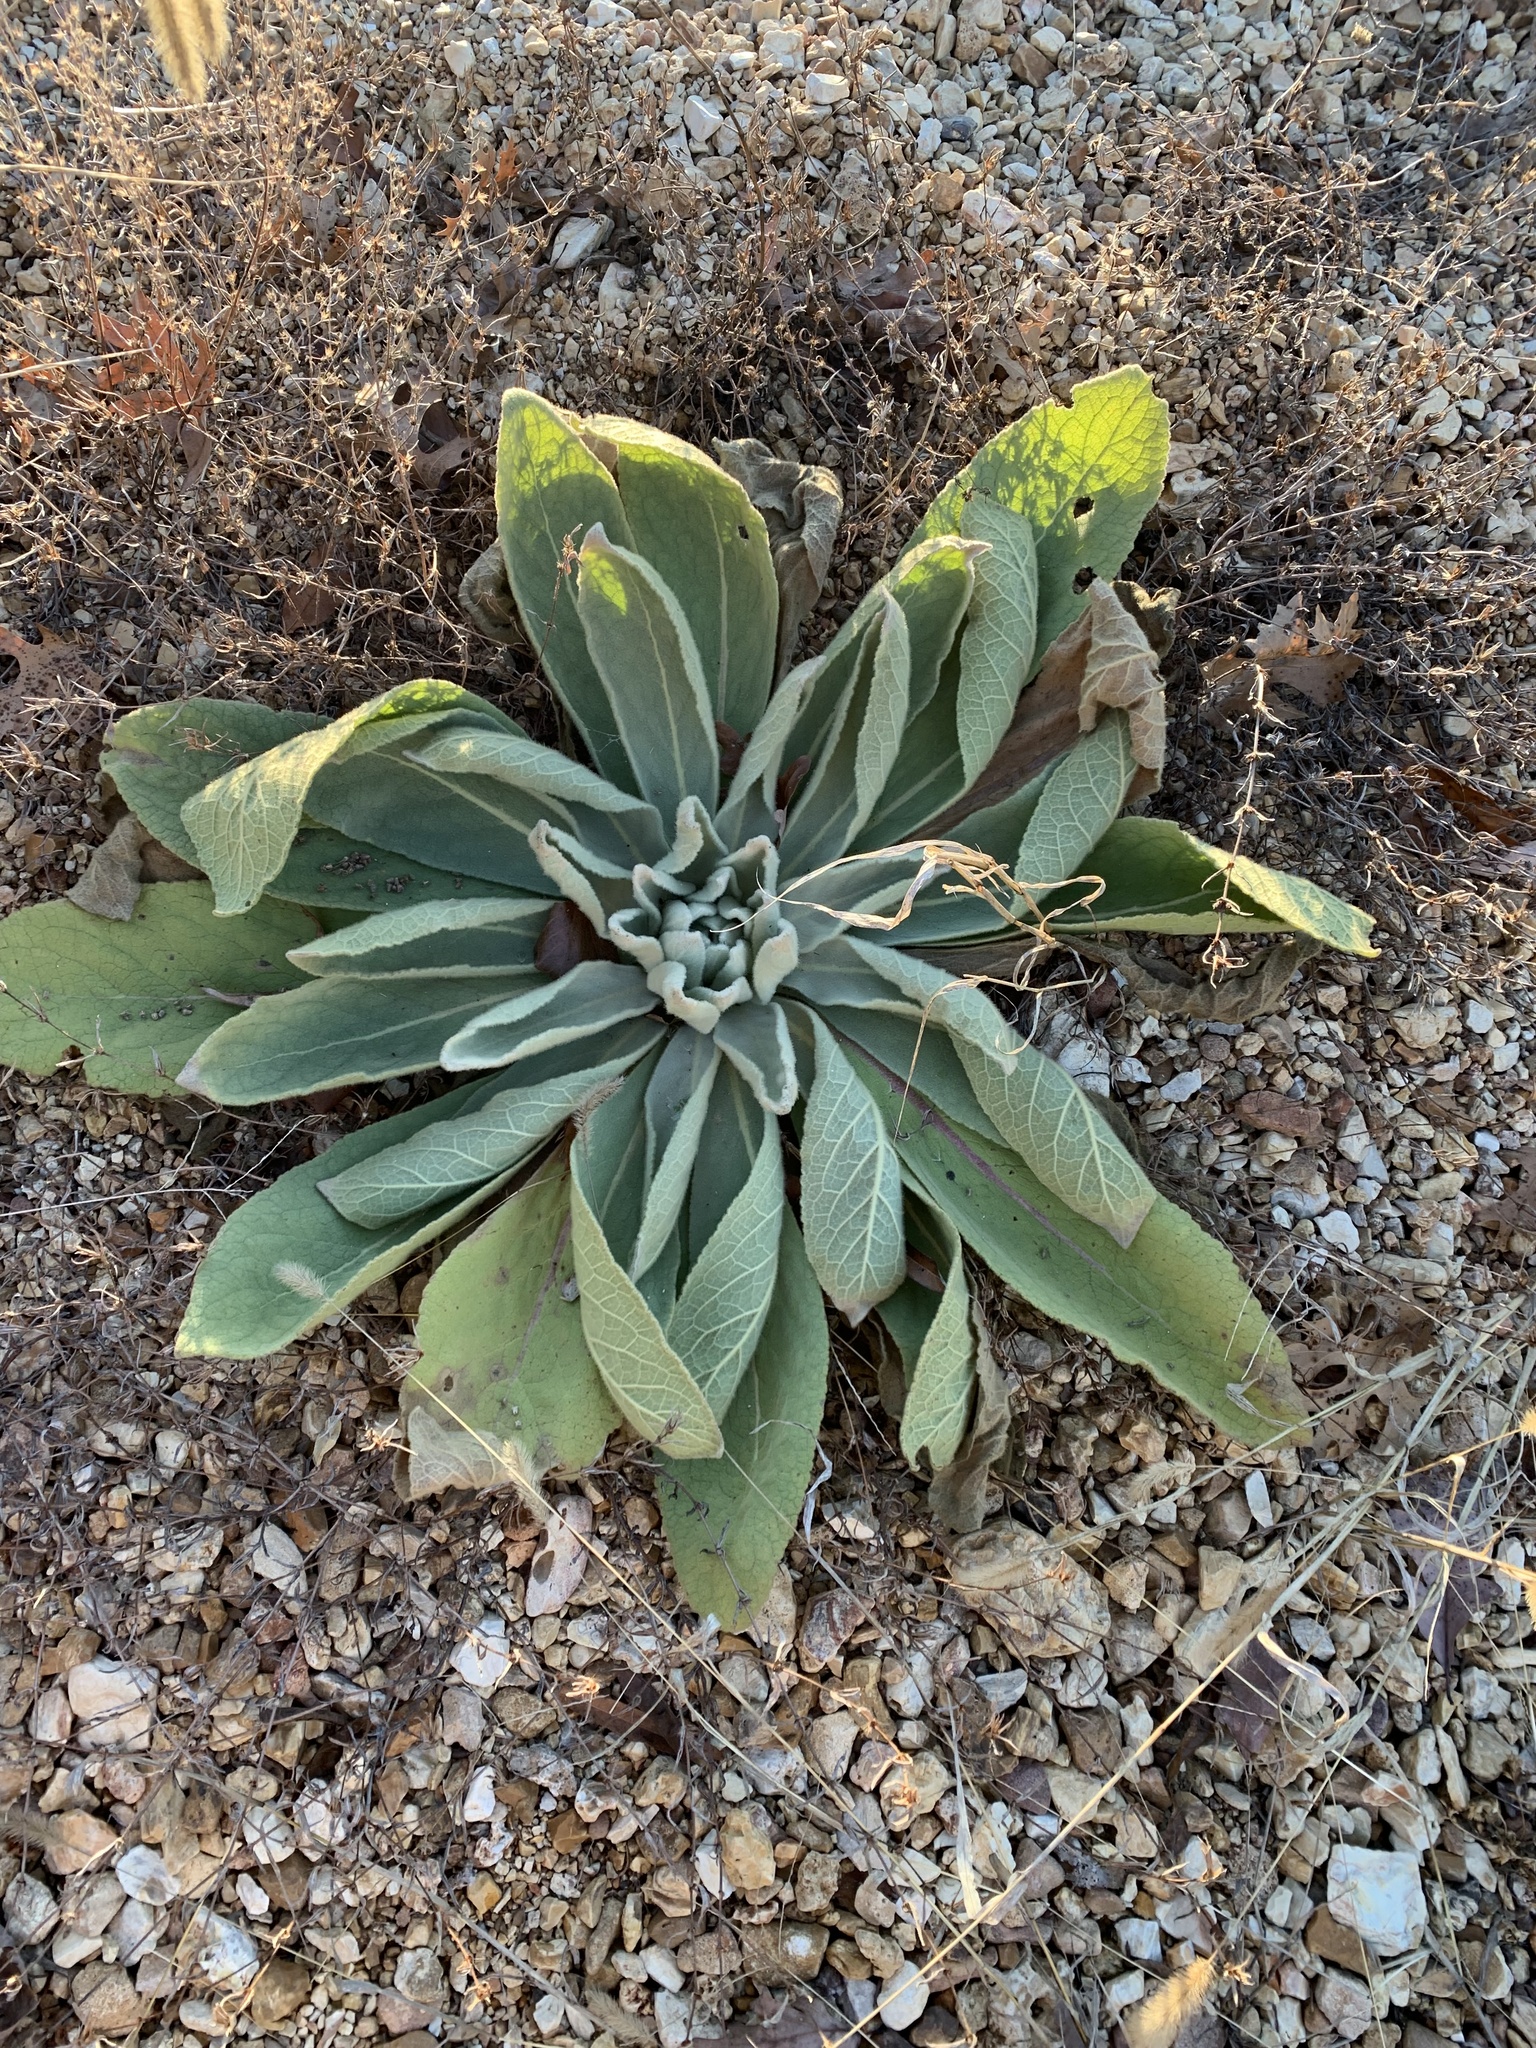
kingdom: Plantae
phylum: Tracheophyta
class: Magnoliopsida
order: Lamiales
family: Scrophulariaceae
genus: Verbascum
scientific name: Verbascum thapsus
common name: Common mullein
